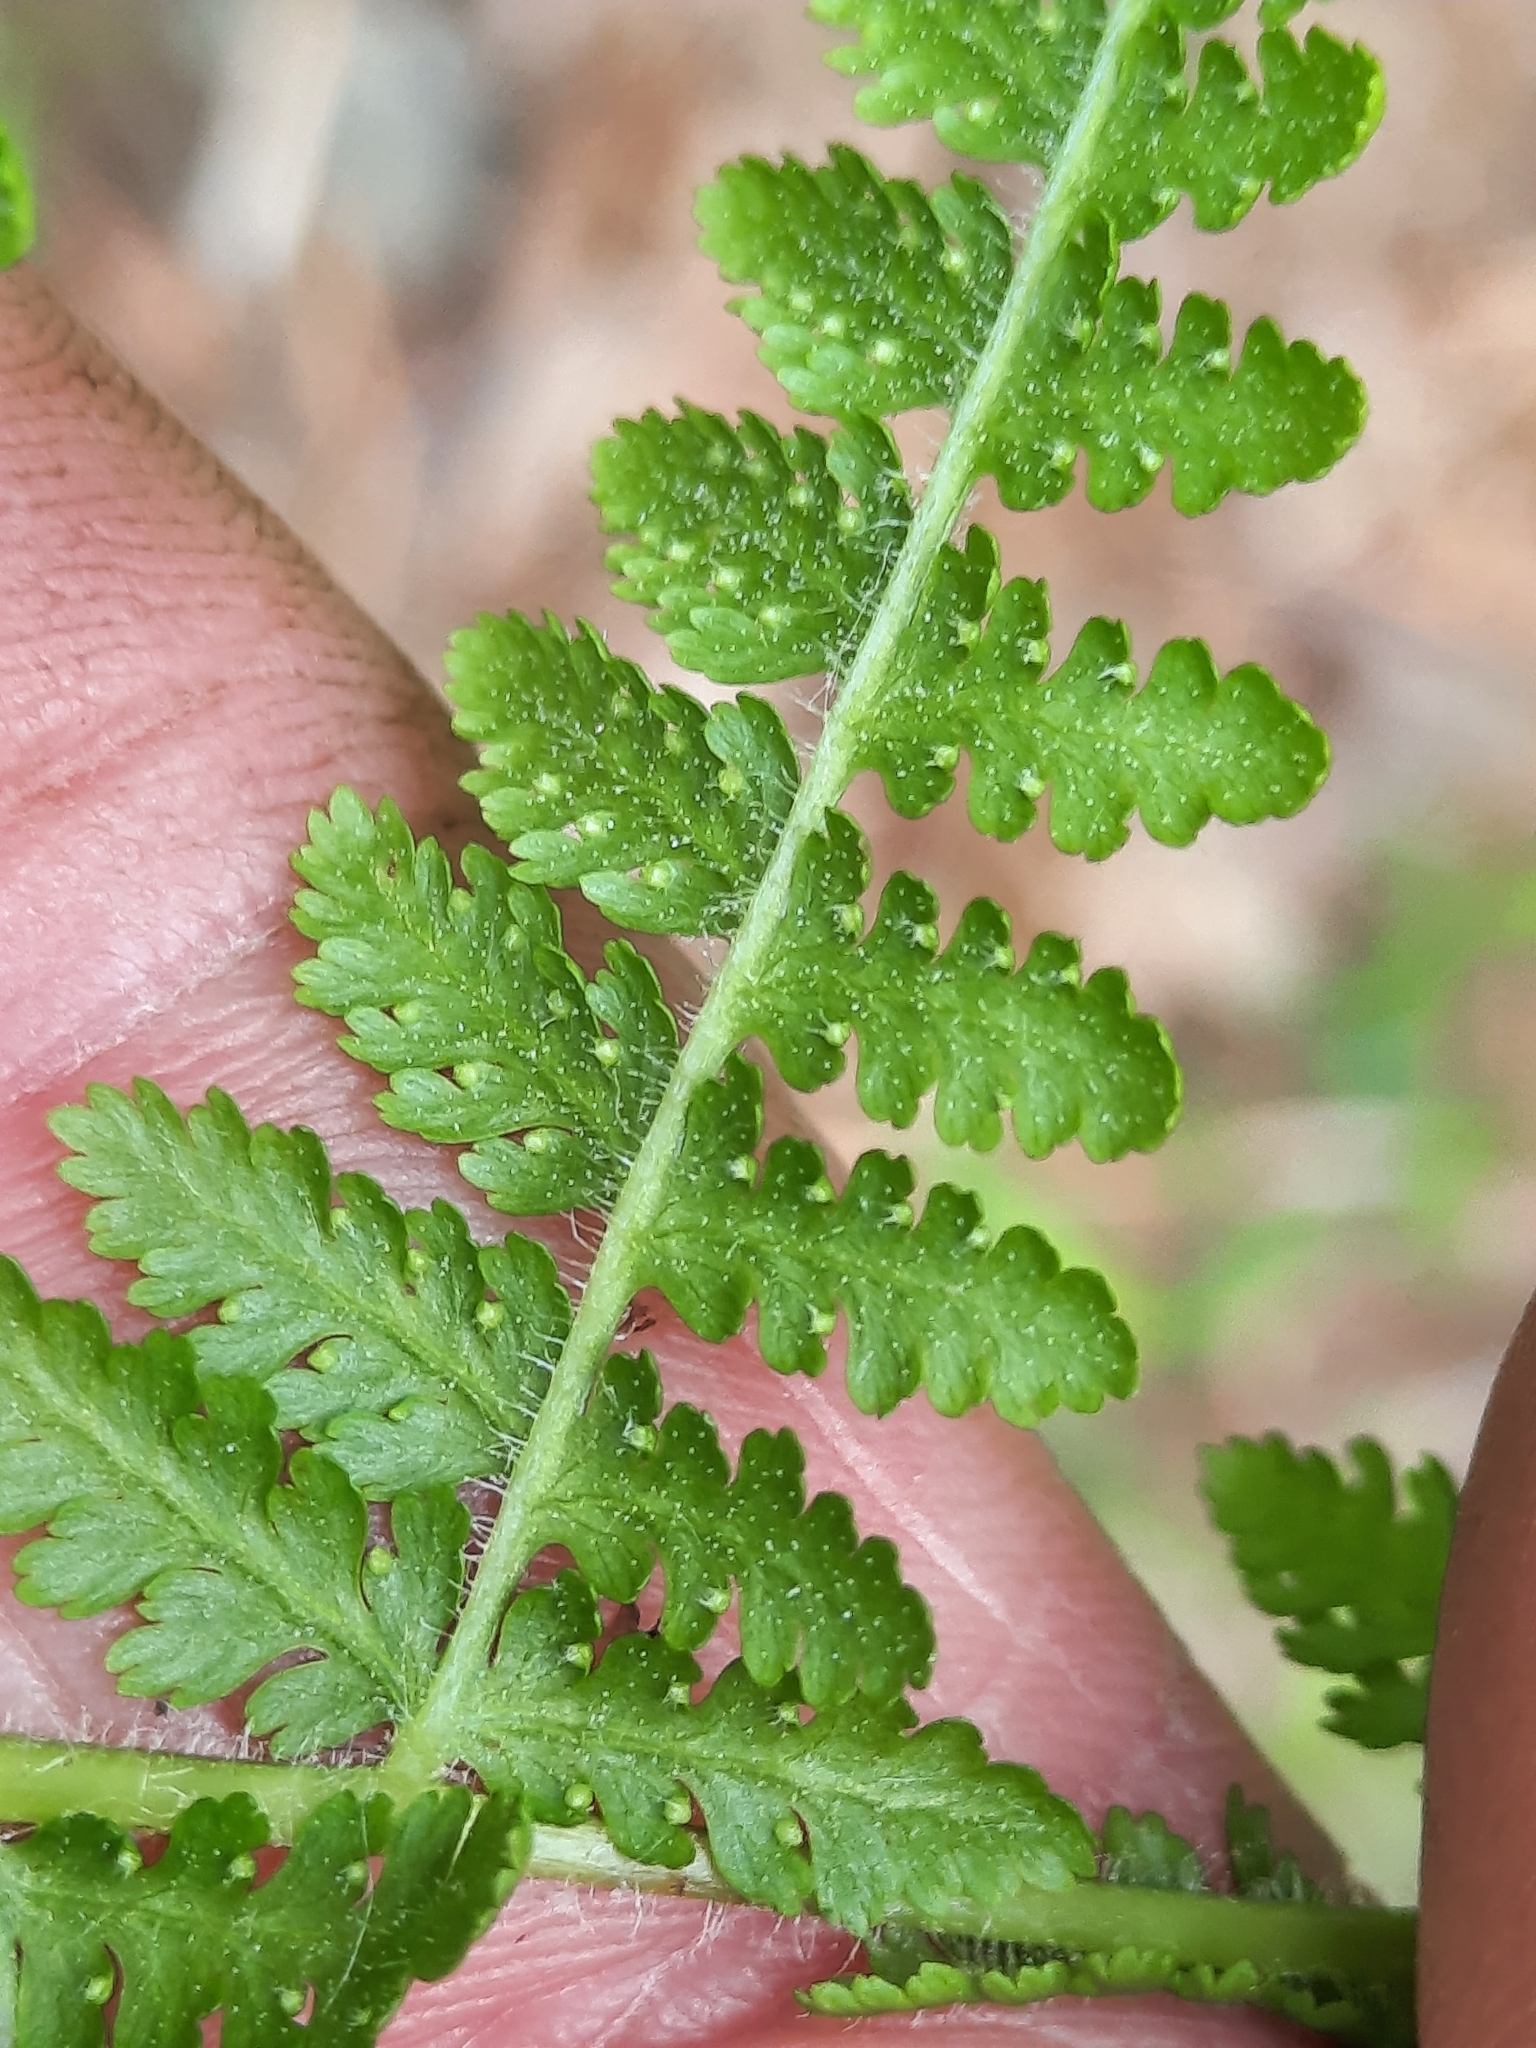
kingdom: Plantae
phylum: Tracheophyta
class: Polypodiopsida
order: Polypodiales
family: Dennstaedtiaceae
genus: Sitobolium
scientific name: Sitobolium punctilobum
